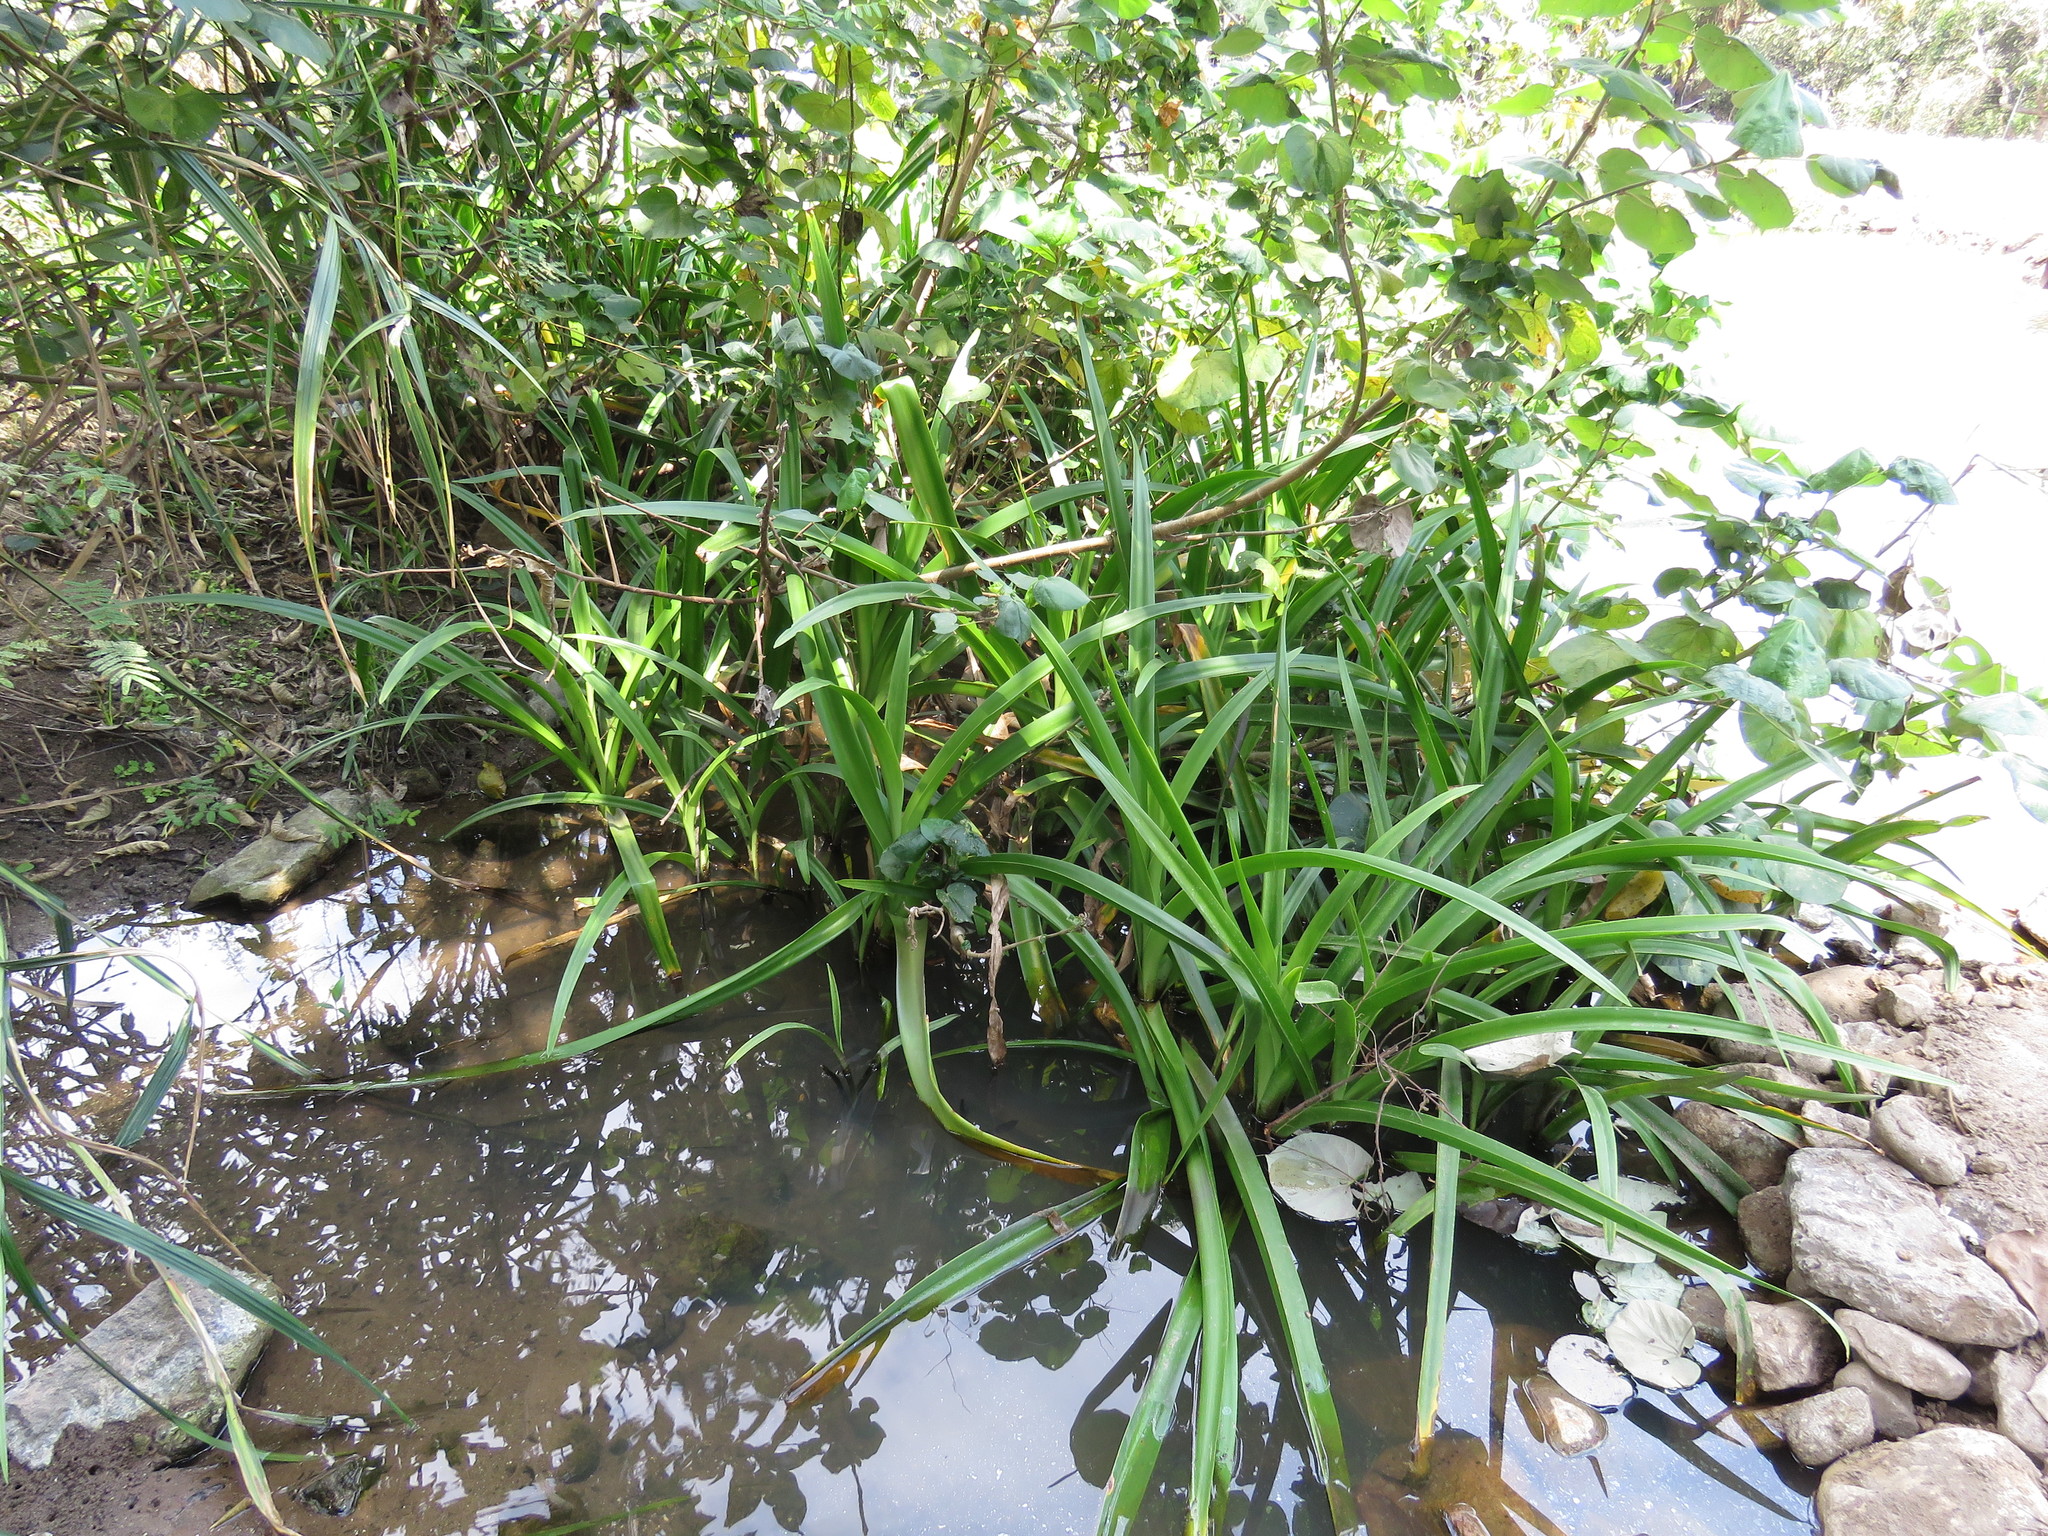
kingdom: Plantae
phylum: Tracheophyta
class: Liliopsida
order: Asparagales
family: Amaryllidaceae
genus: Hymenocallis
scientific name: Hymenocallis concinna
